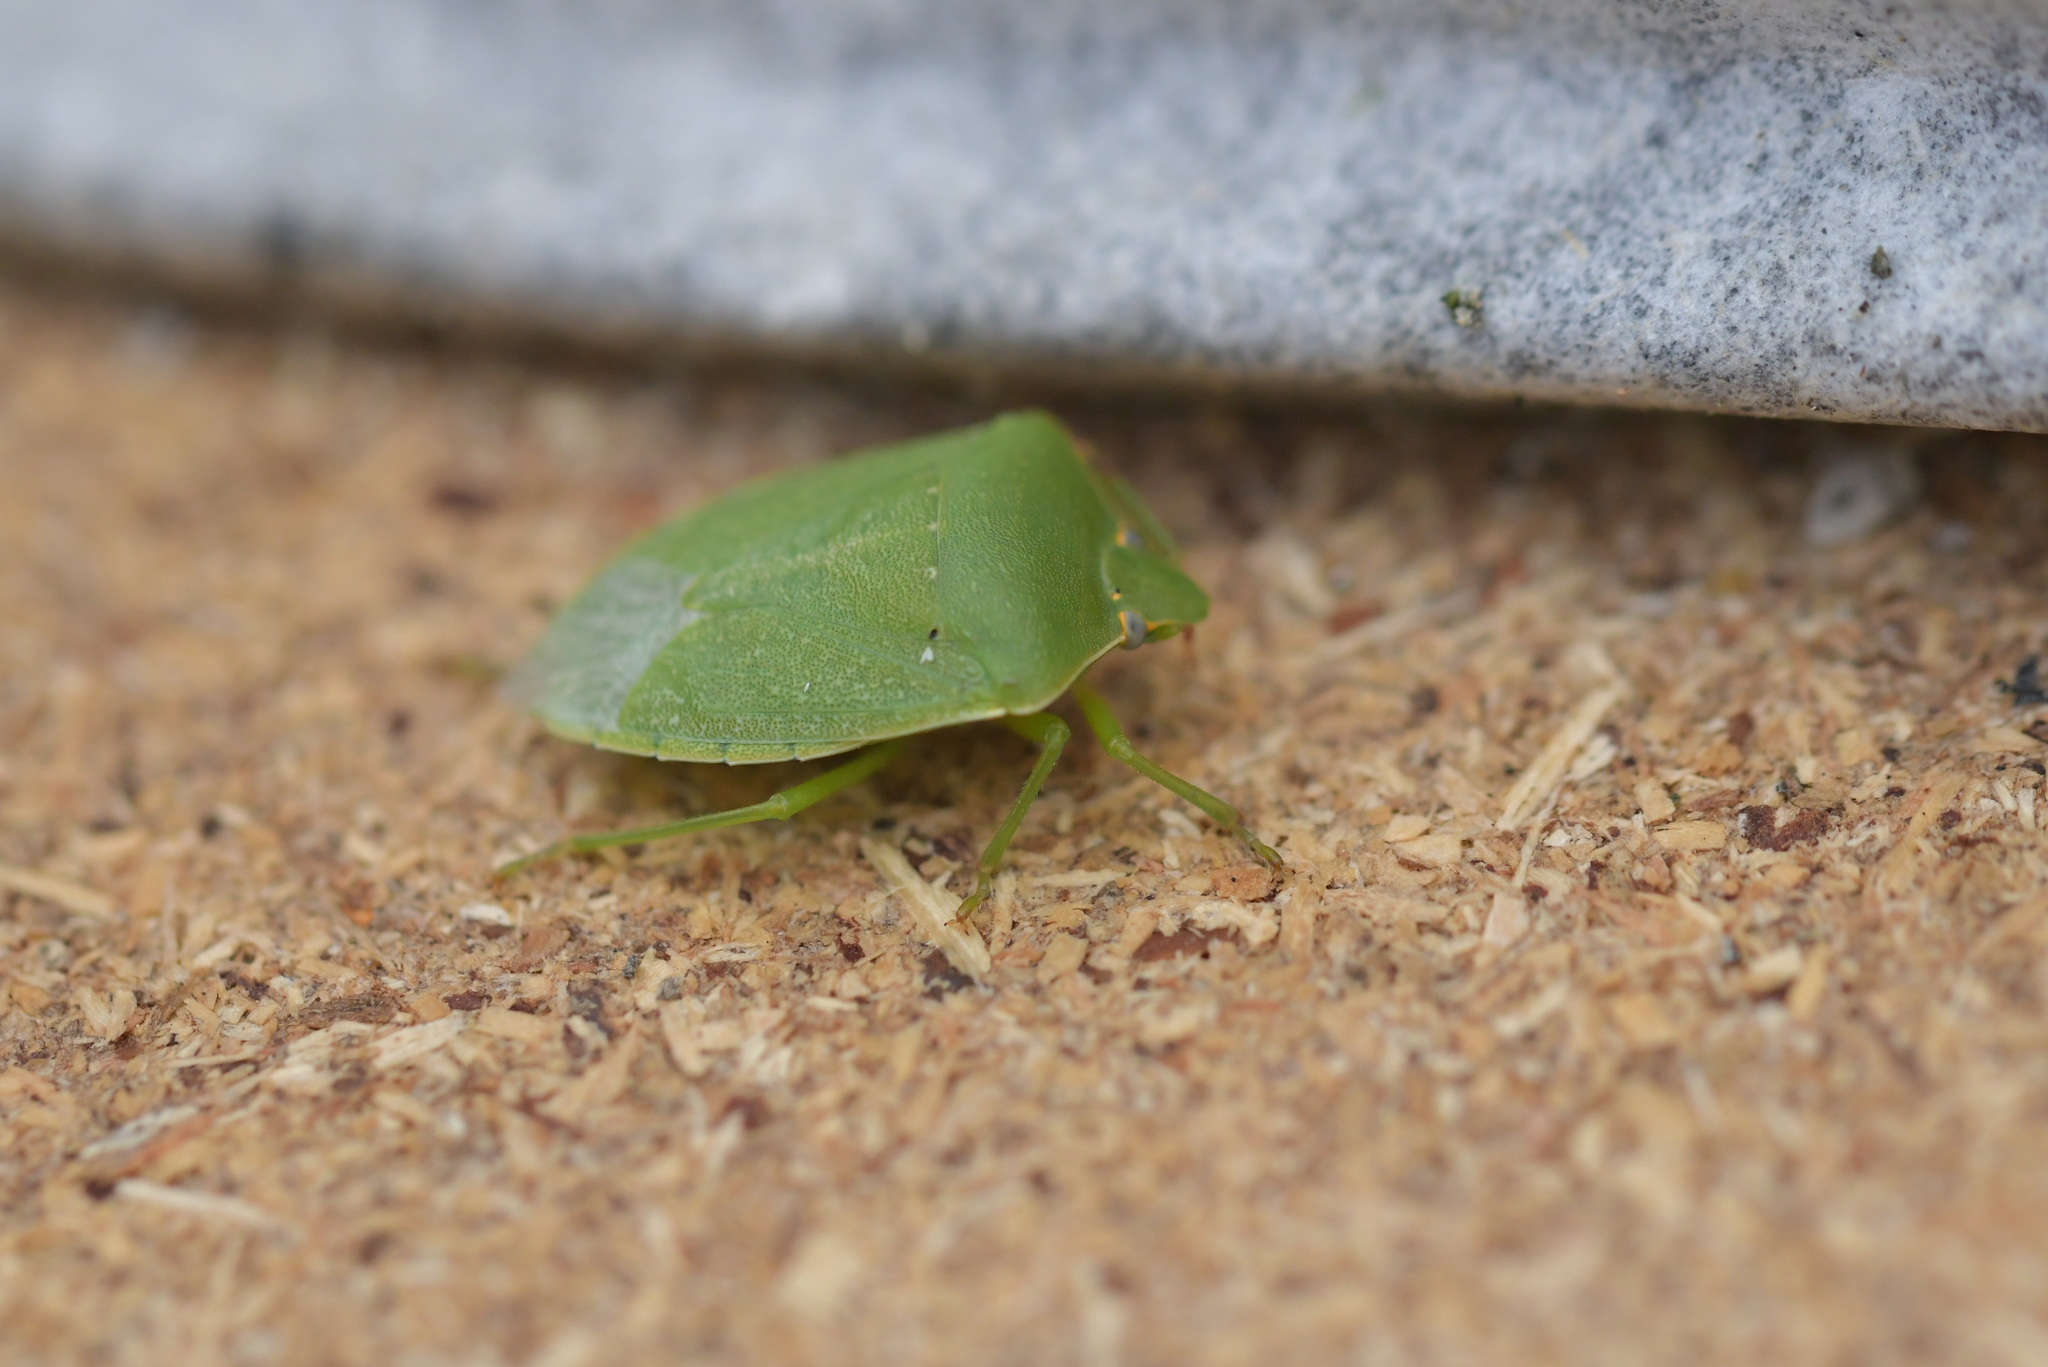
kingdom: Animalia
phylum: Arthropoda
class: Insecta
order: Hemiptera
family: Pentatomidae
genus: Nezara
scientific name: Nezara viridula
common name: Southern green stink bug
